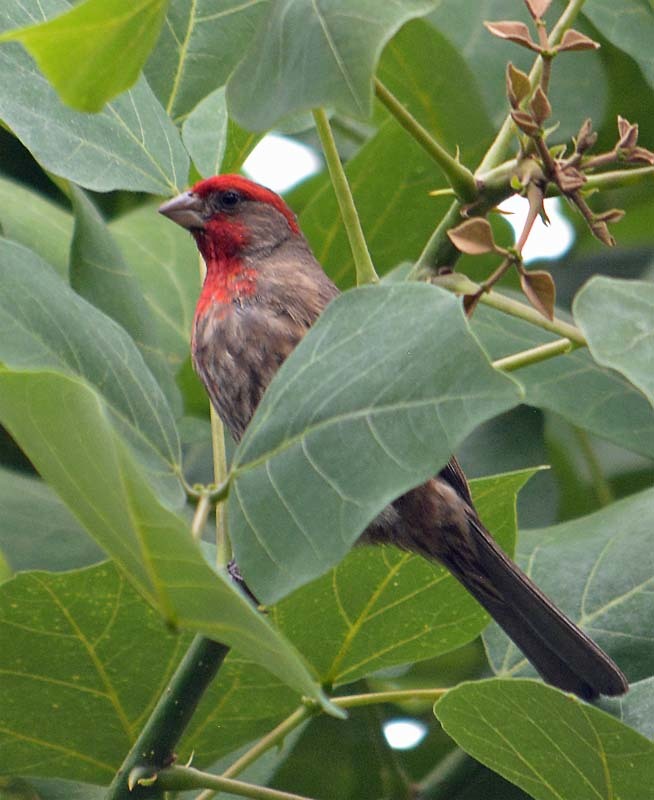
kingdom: Animalia
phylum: Chordata
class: Aves
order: Passeriformes
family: Fringillidae
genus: Haemorhous
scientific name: Haemorhous mexicanus
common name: House finch
